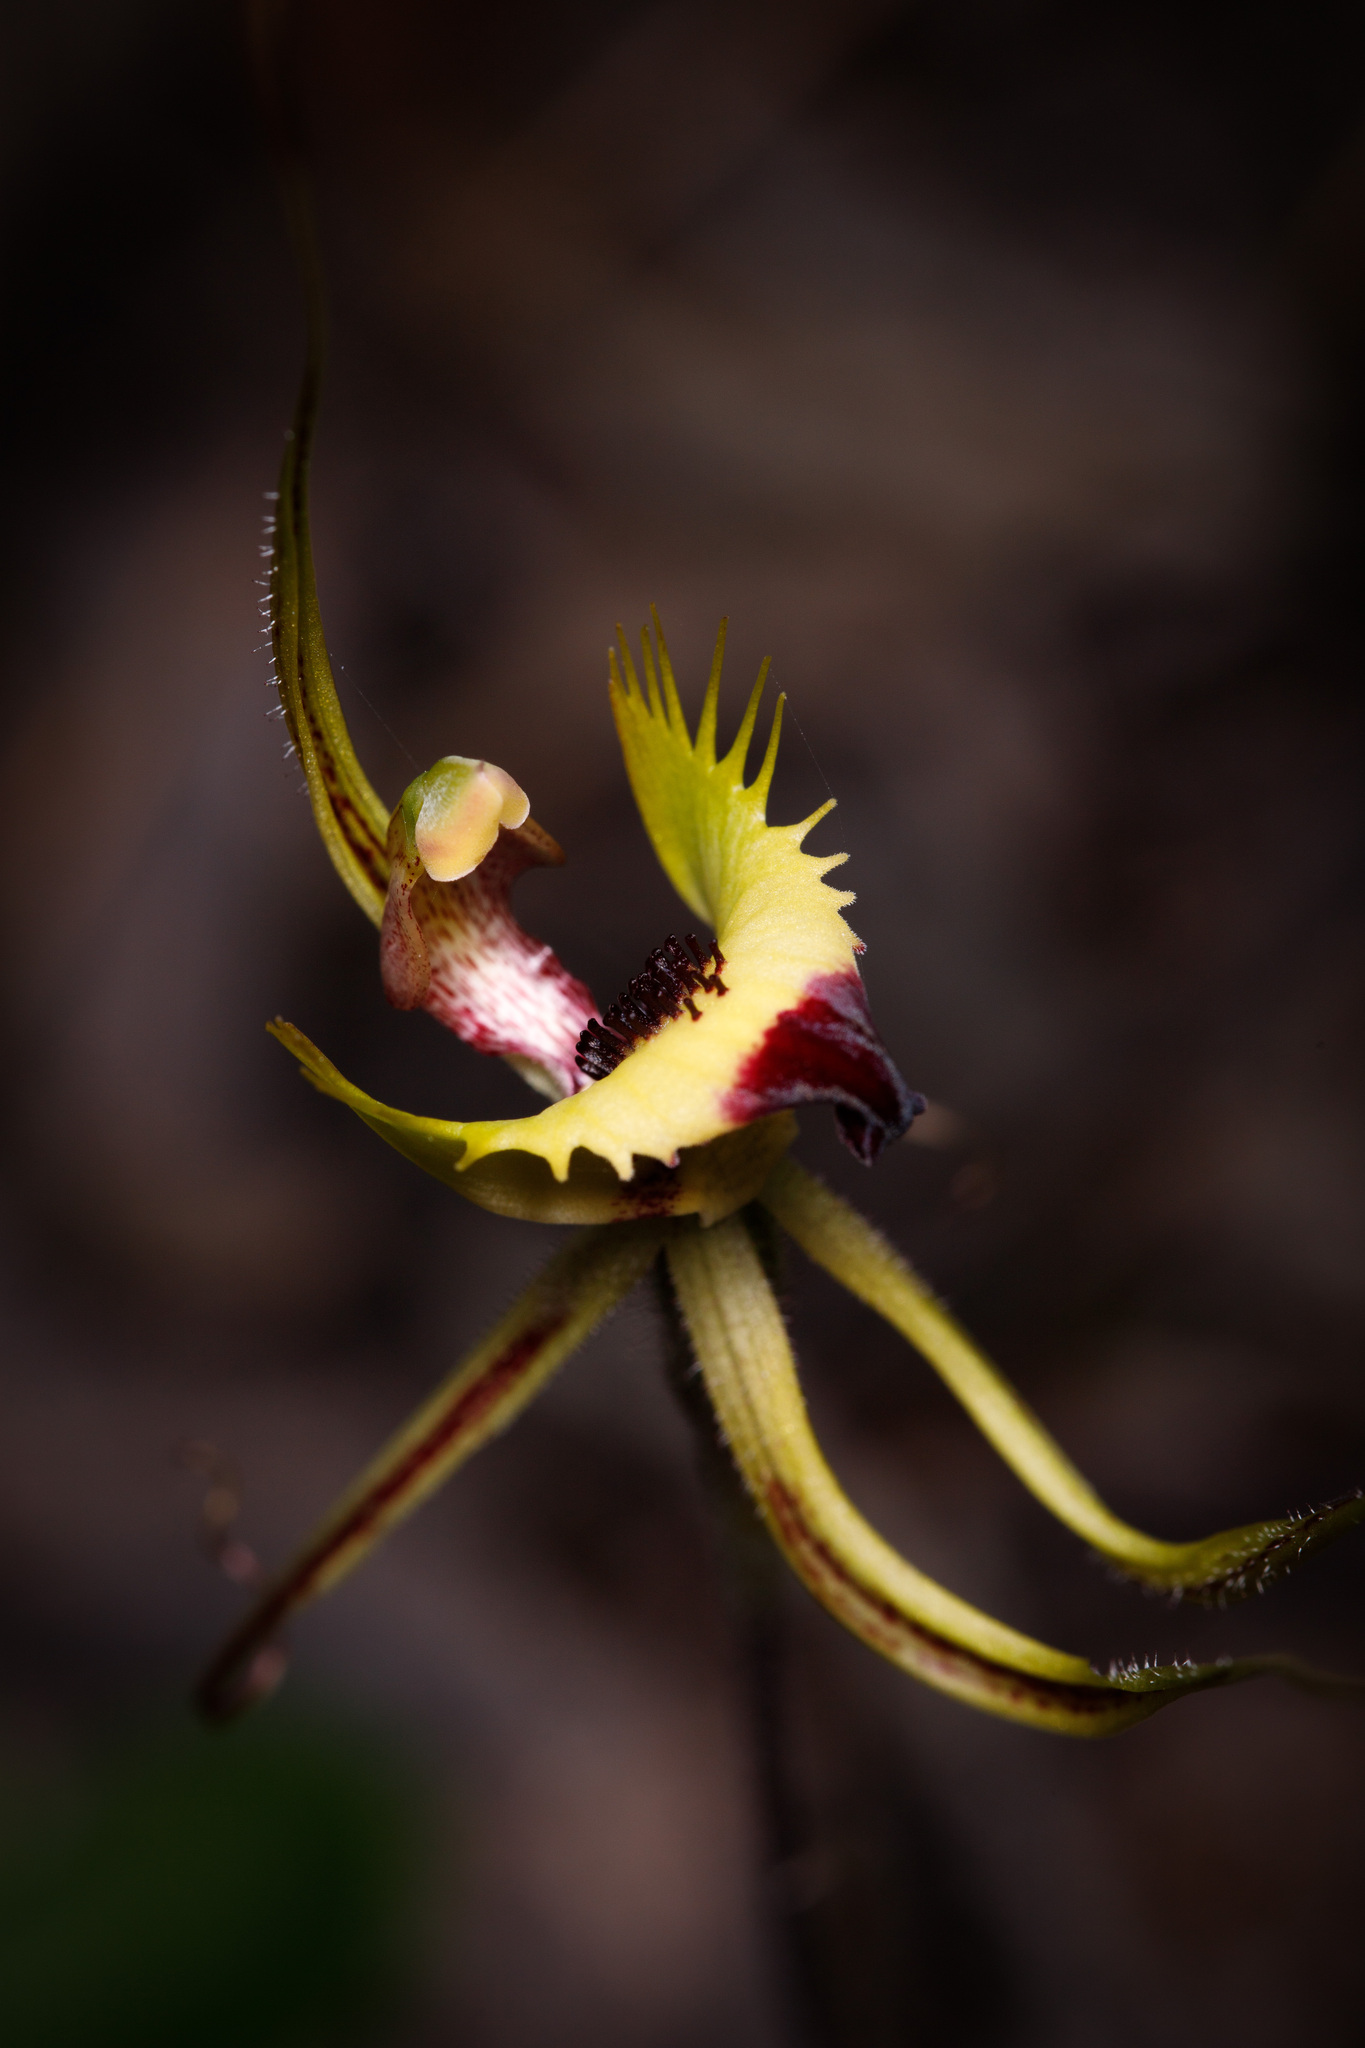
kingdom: Plantae
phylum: Tracheophyta
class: Liliopsida
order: Asparagales
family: Orchidaceae
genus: Caladenia
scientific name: Caladenia falcata
